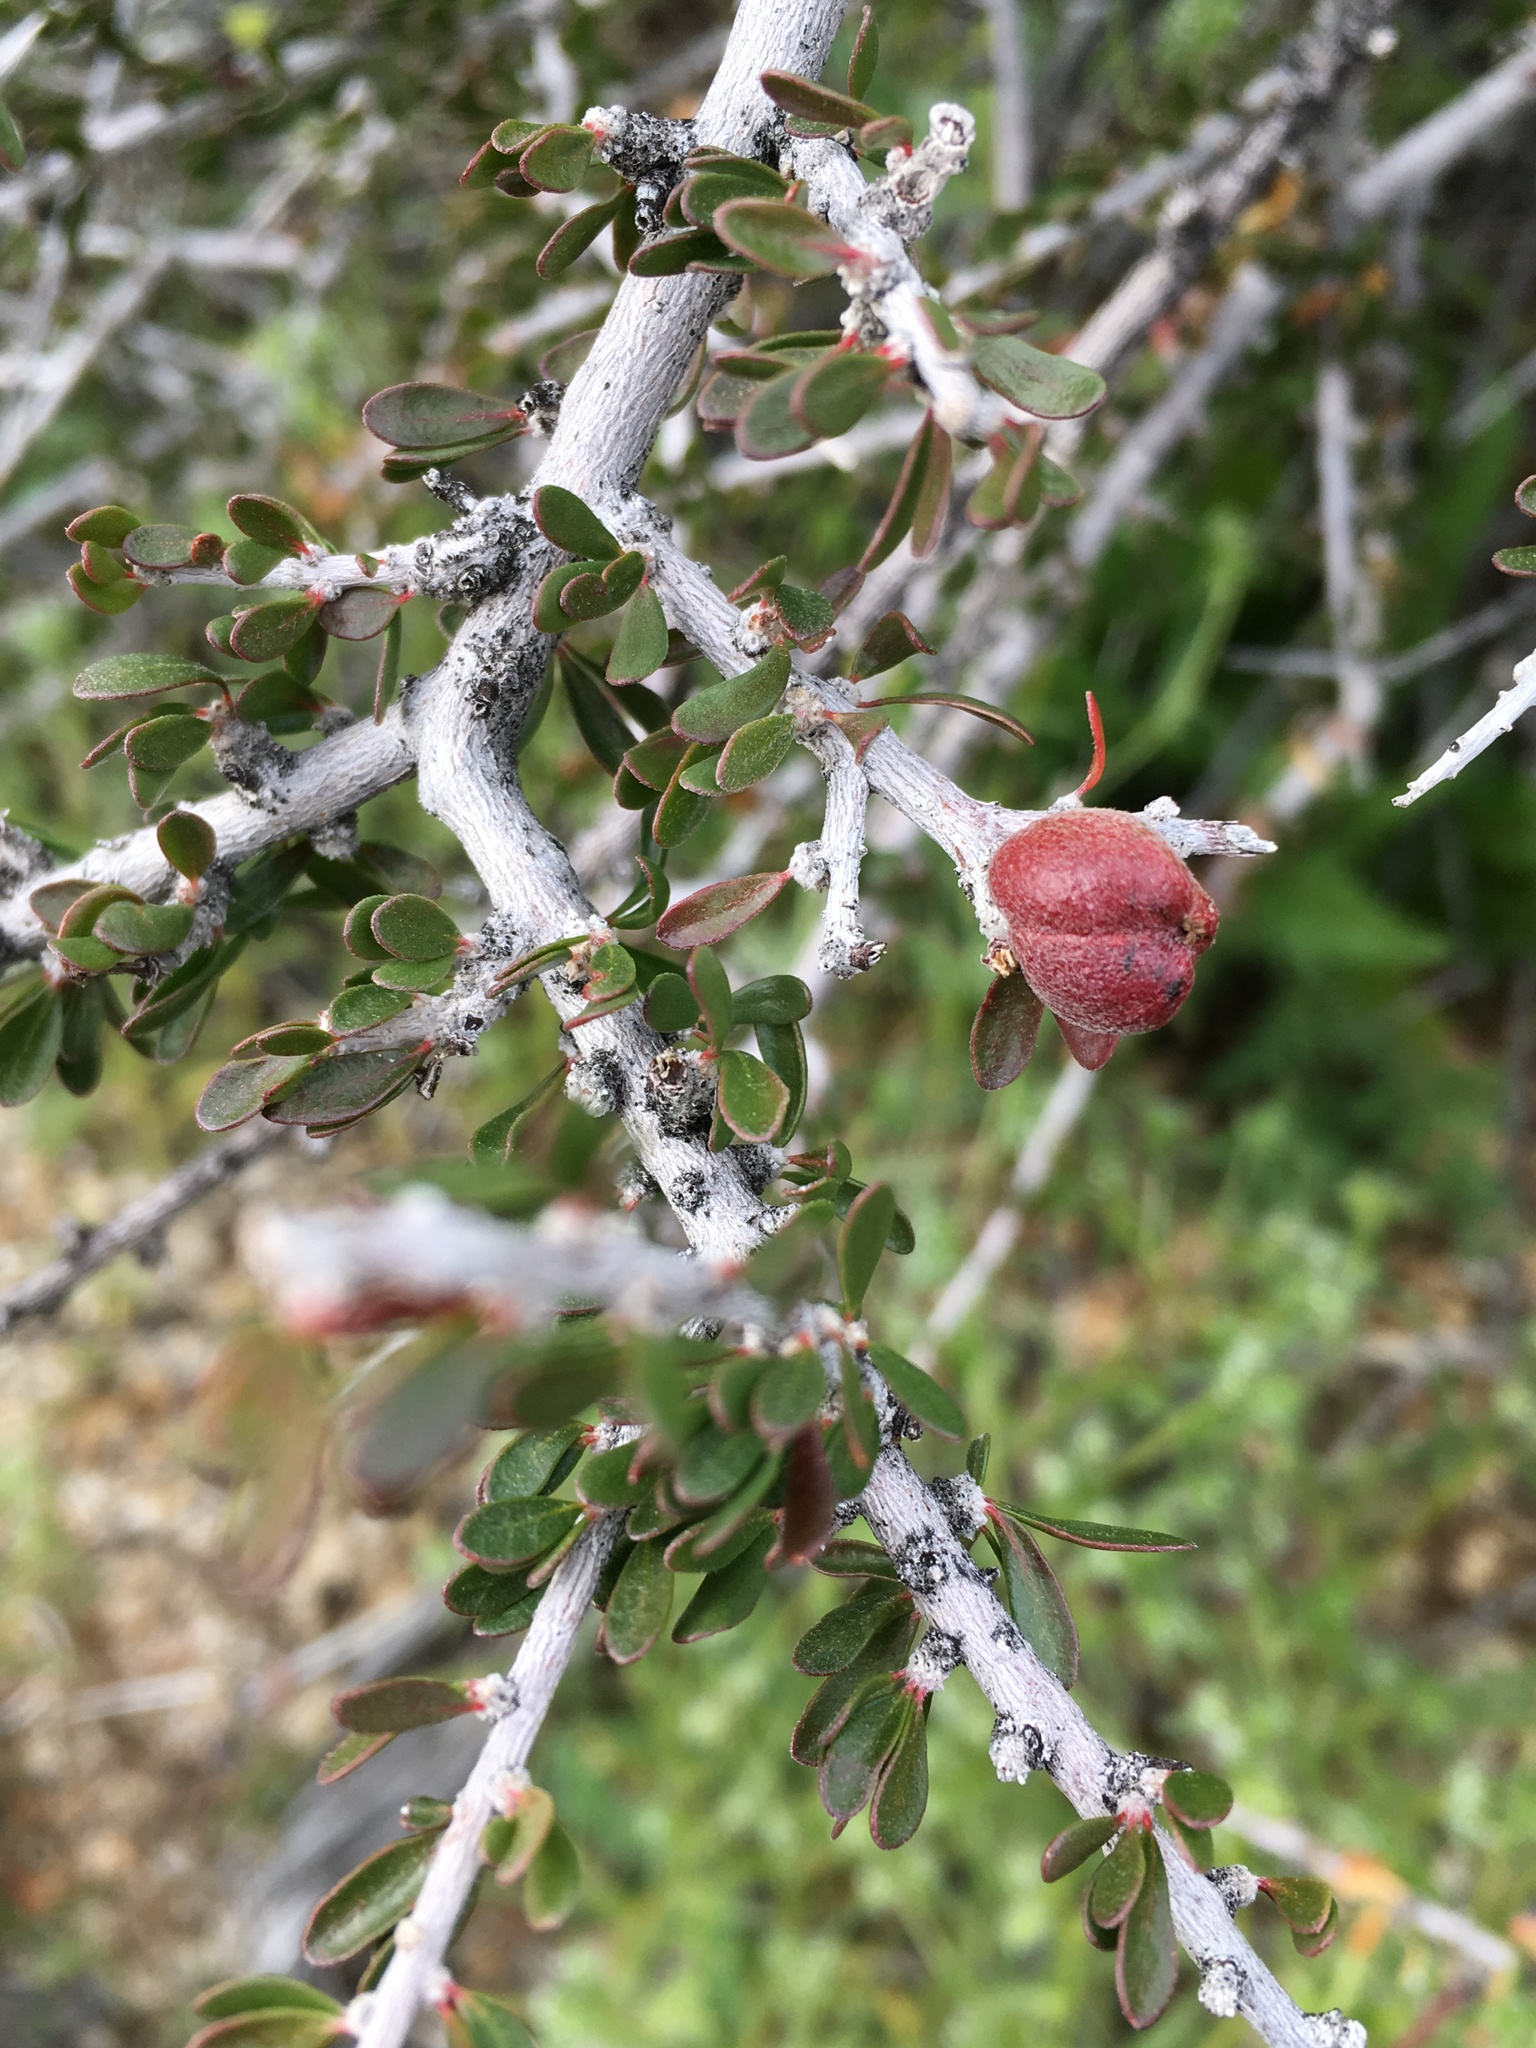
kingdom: Plantae
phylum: Tracheophyta
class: Magnoliopsida
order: Malpighiales
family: Picrodendraceae
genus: Tetracoccus
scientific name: Tetracoccus hallii
